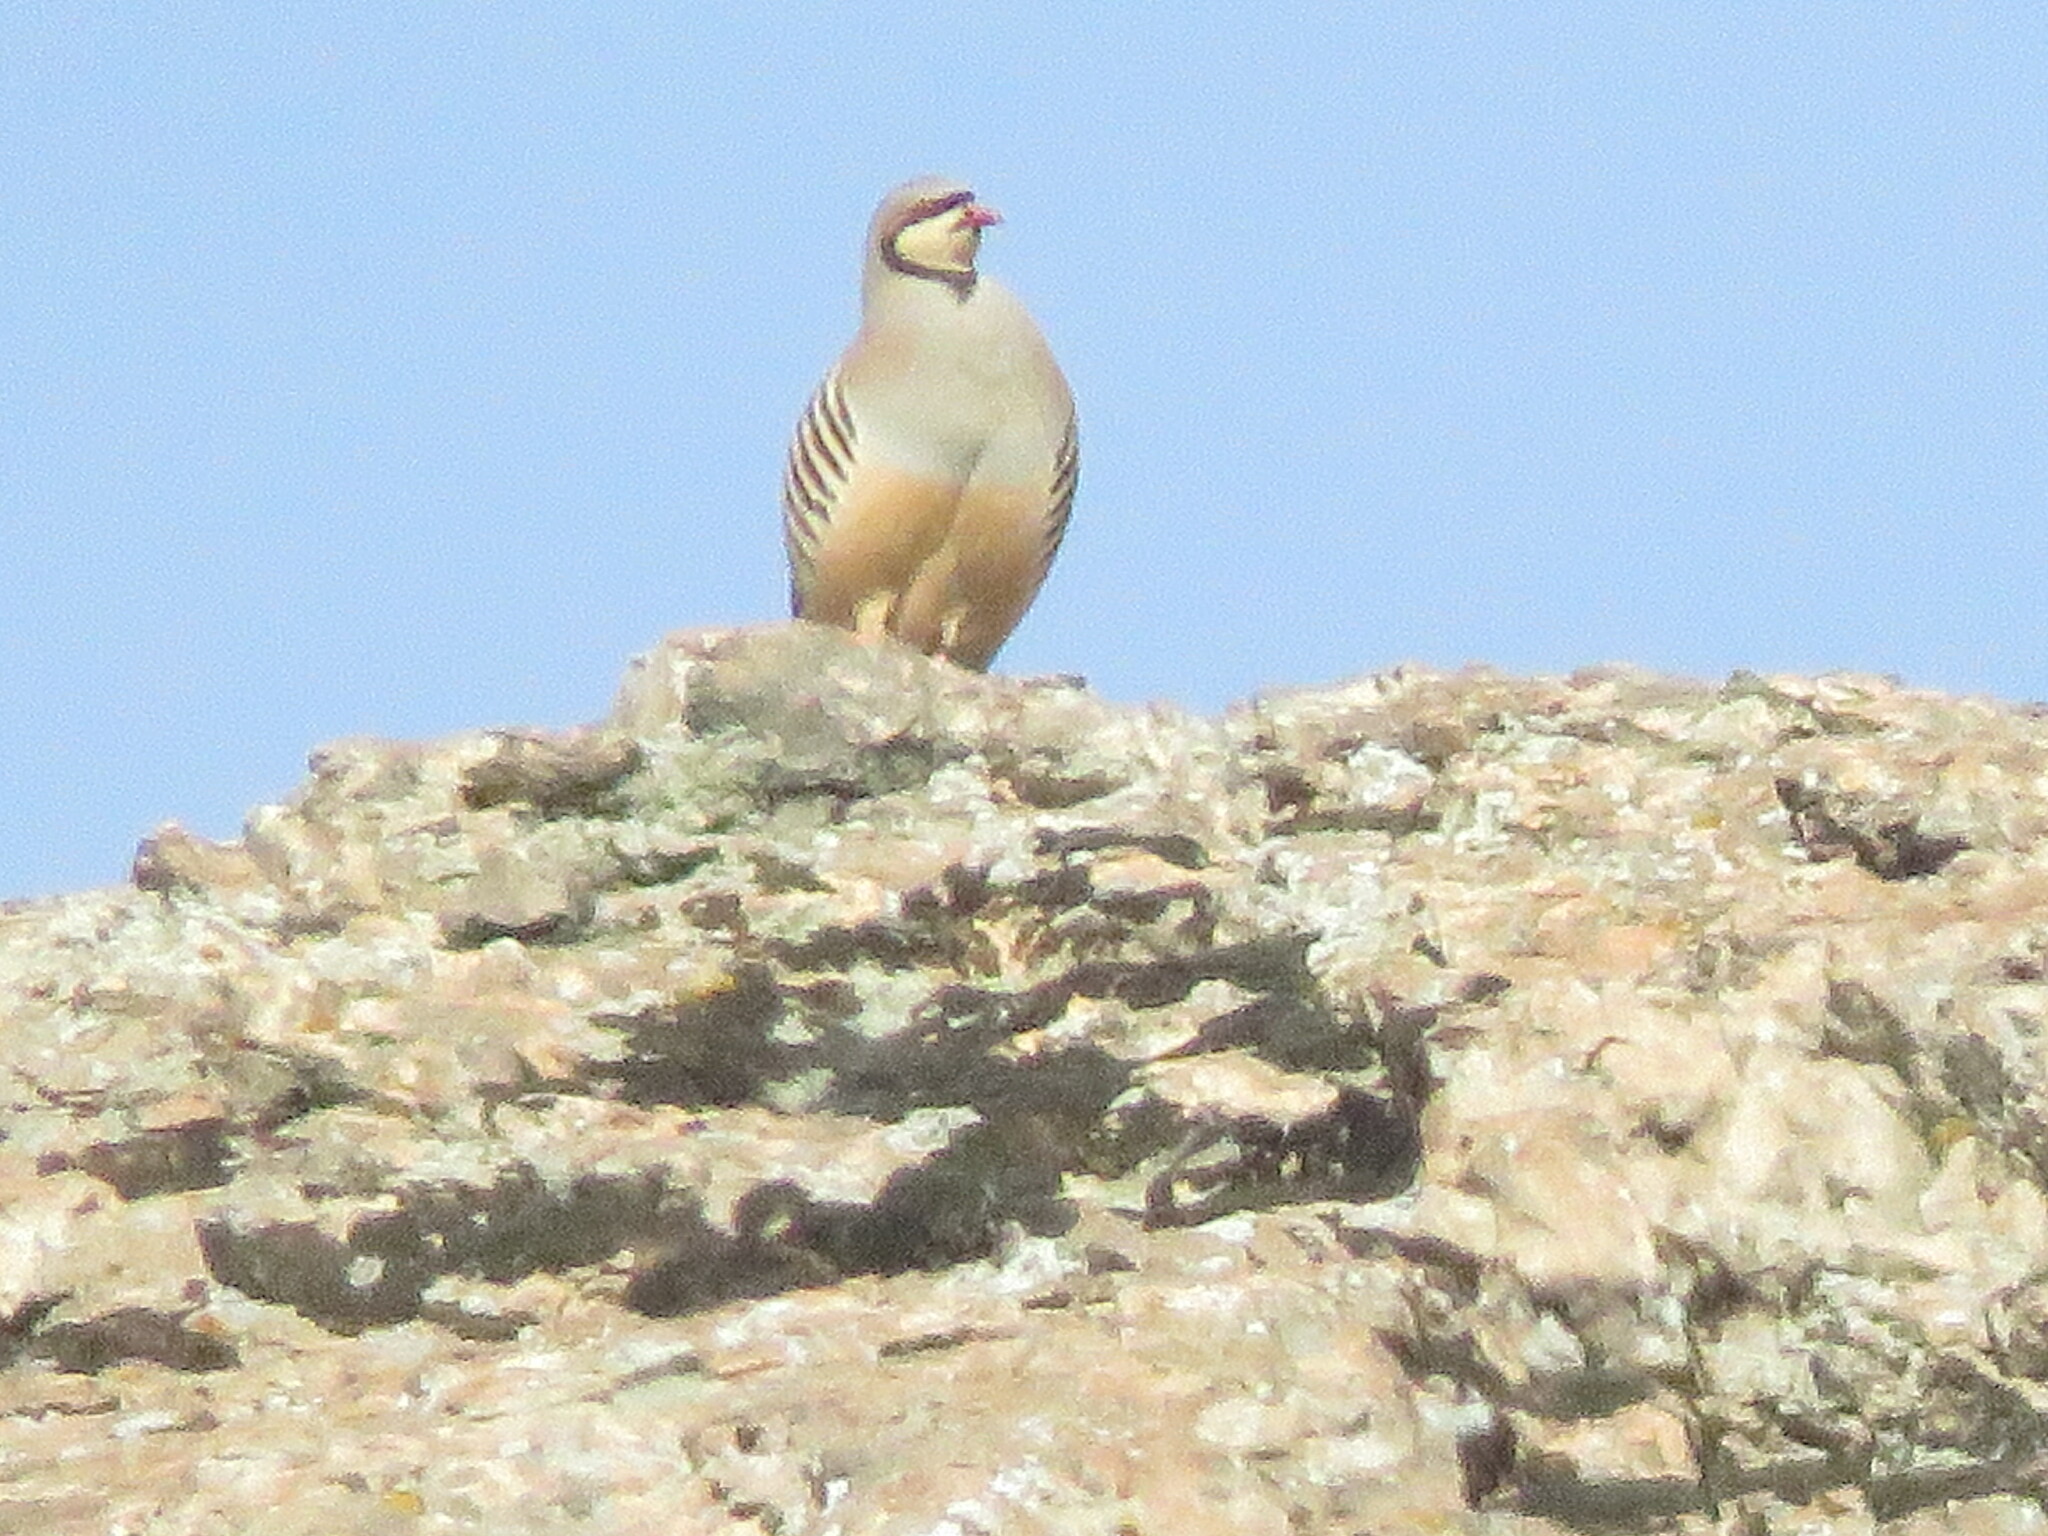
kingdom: Animalia
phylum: Chordata
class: Aves
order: Galliformes
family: Phasianidae
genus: Alectoris
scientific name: Alectoris chukar
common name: Chukar
